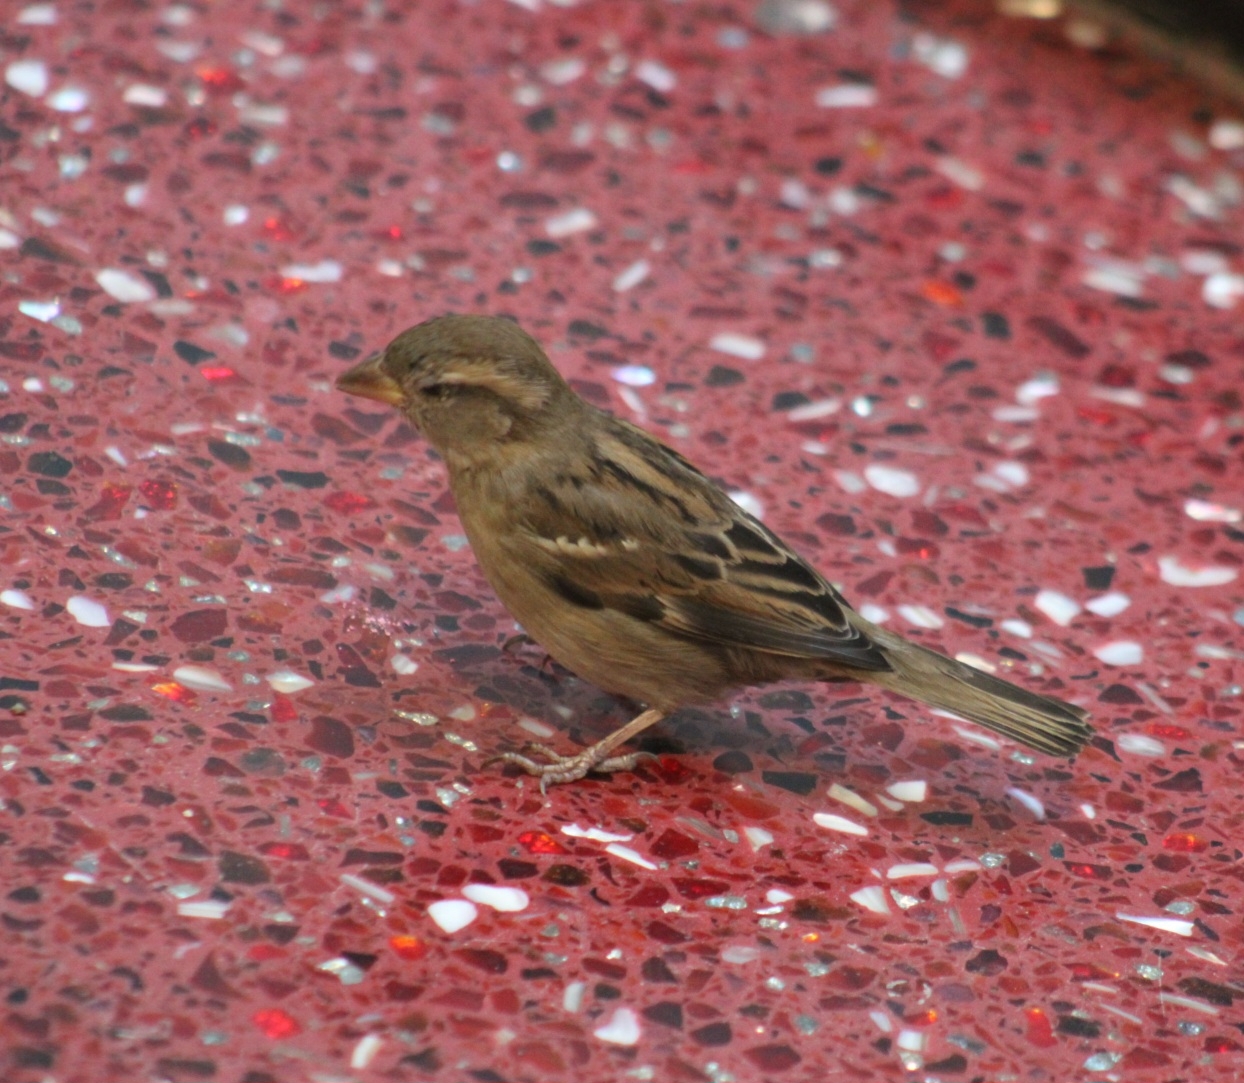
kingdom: Animalia
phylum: Chordata
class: Aves
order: Passeriformes
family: Passeridae
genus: Passer
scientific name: Passer domesticus
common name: House sparrow
